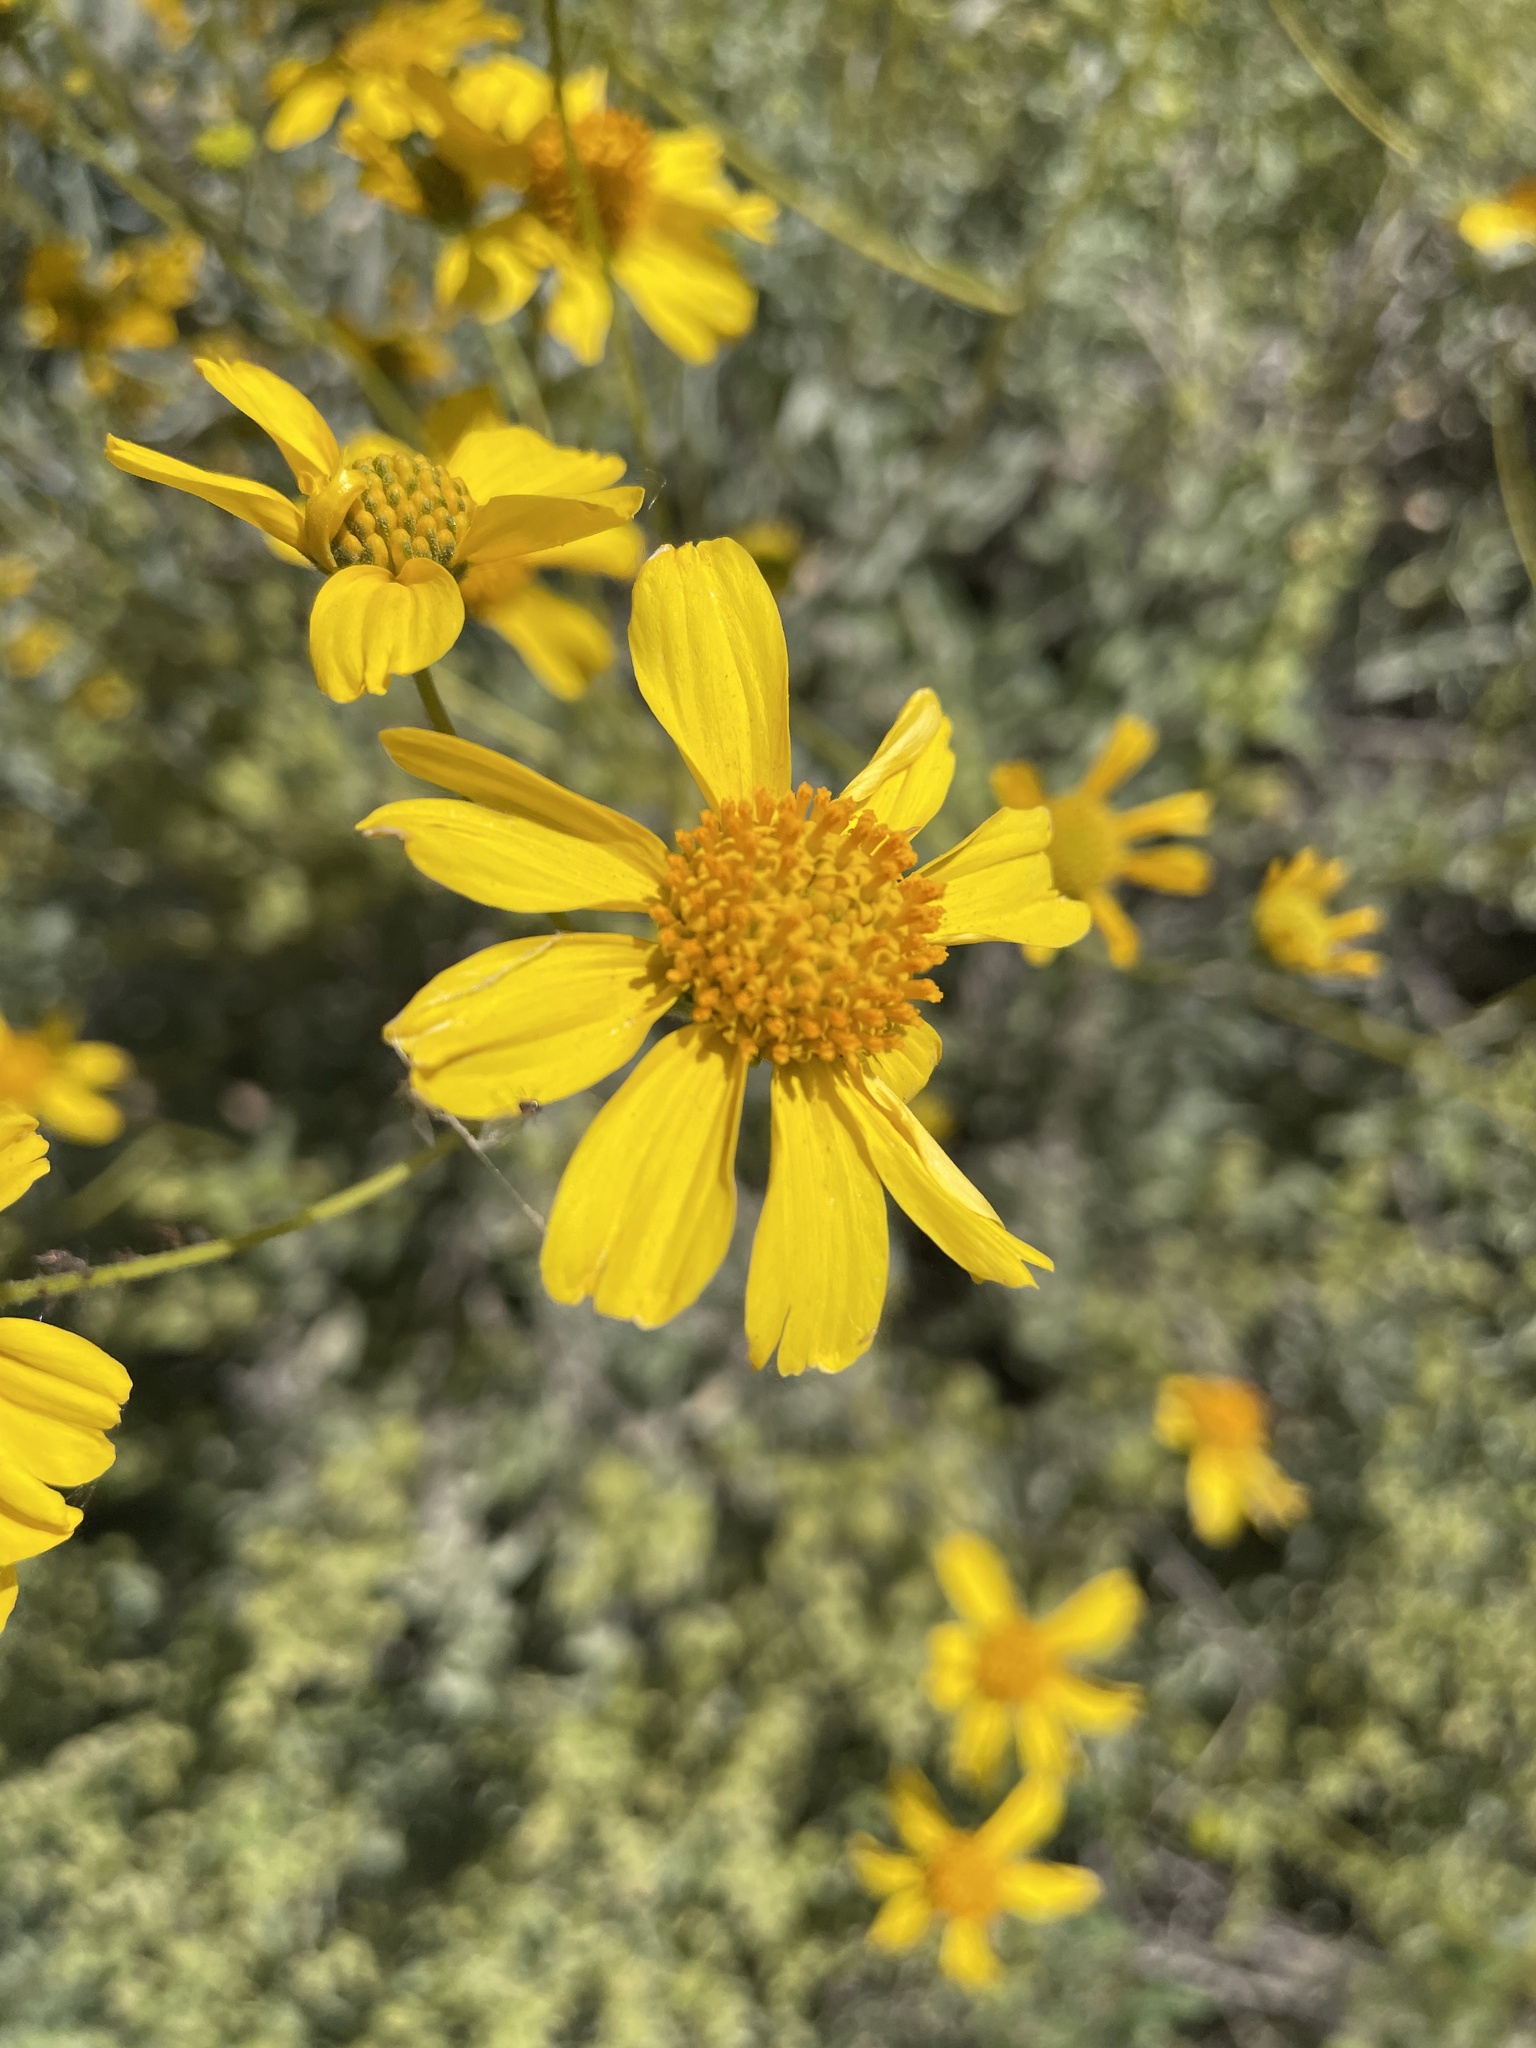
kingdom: Plantae
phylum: Tracheophyta
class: Magnoliopsida
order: Asterales
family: Asteraceae
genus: Encelia
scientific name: Encelia farinosa
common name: Brittlebush
